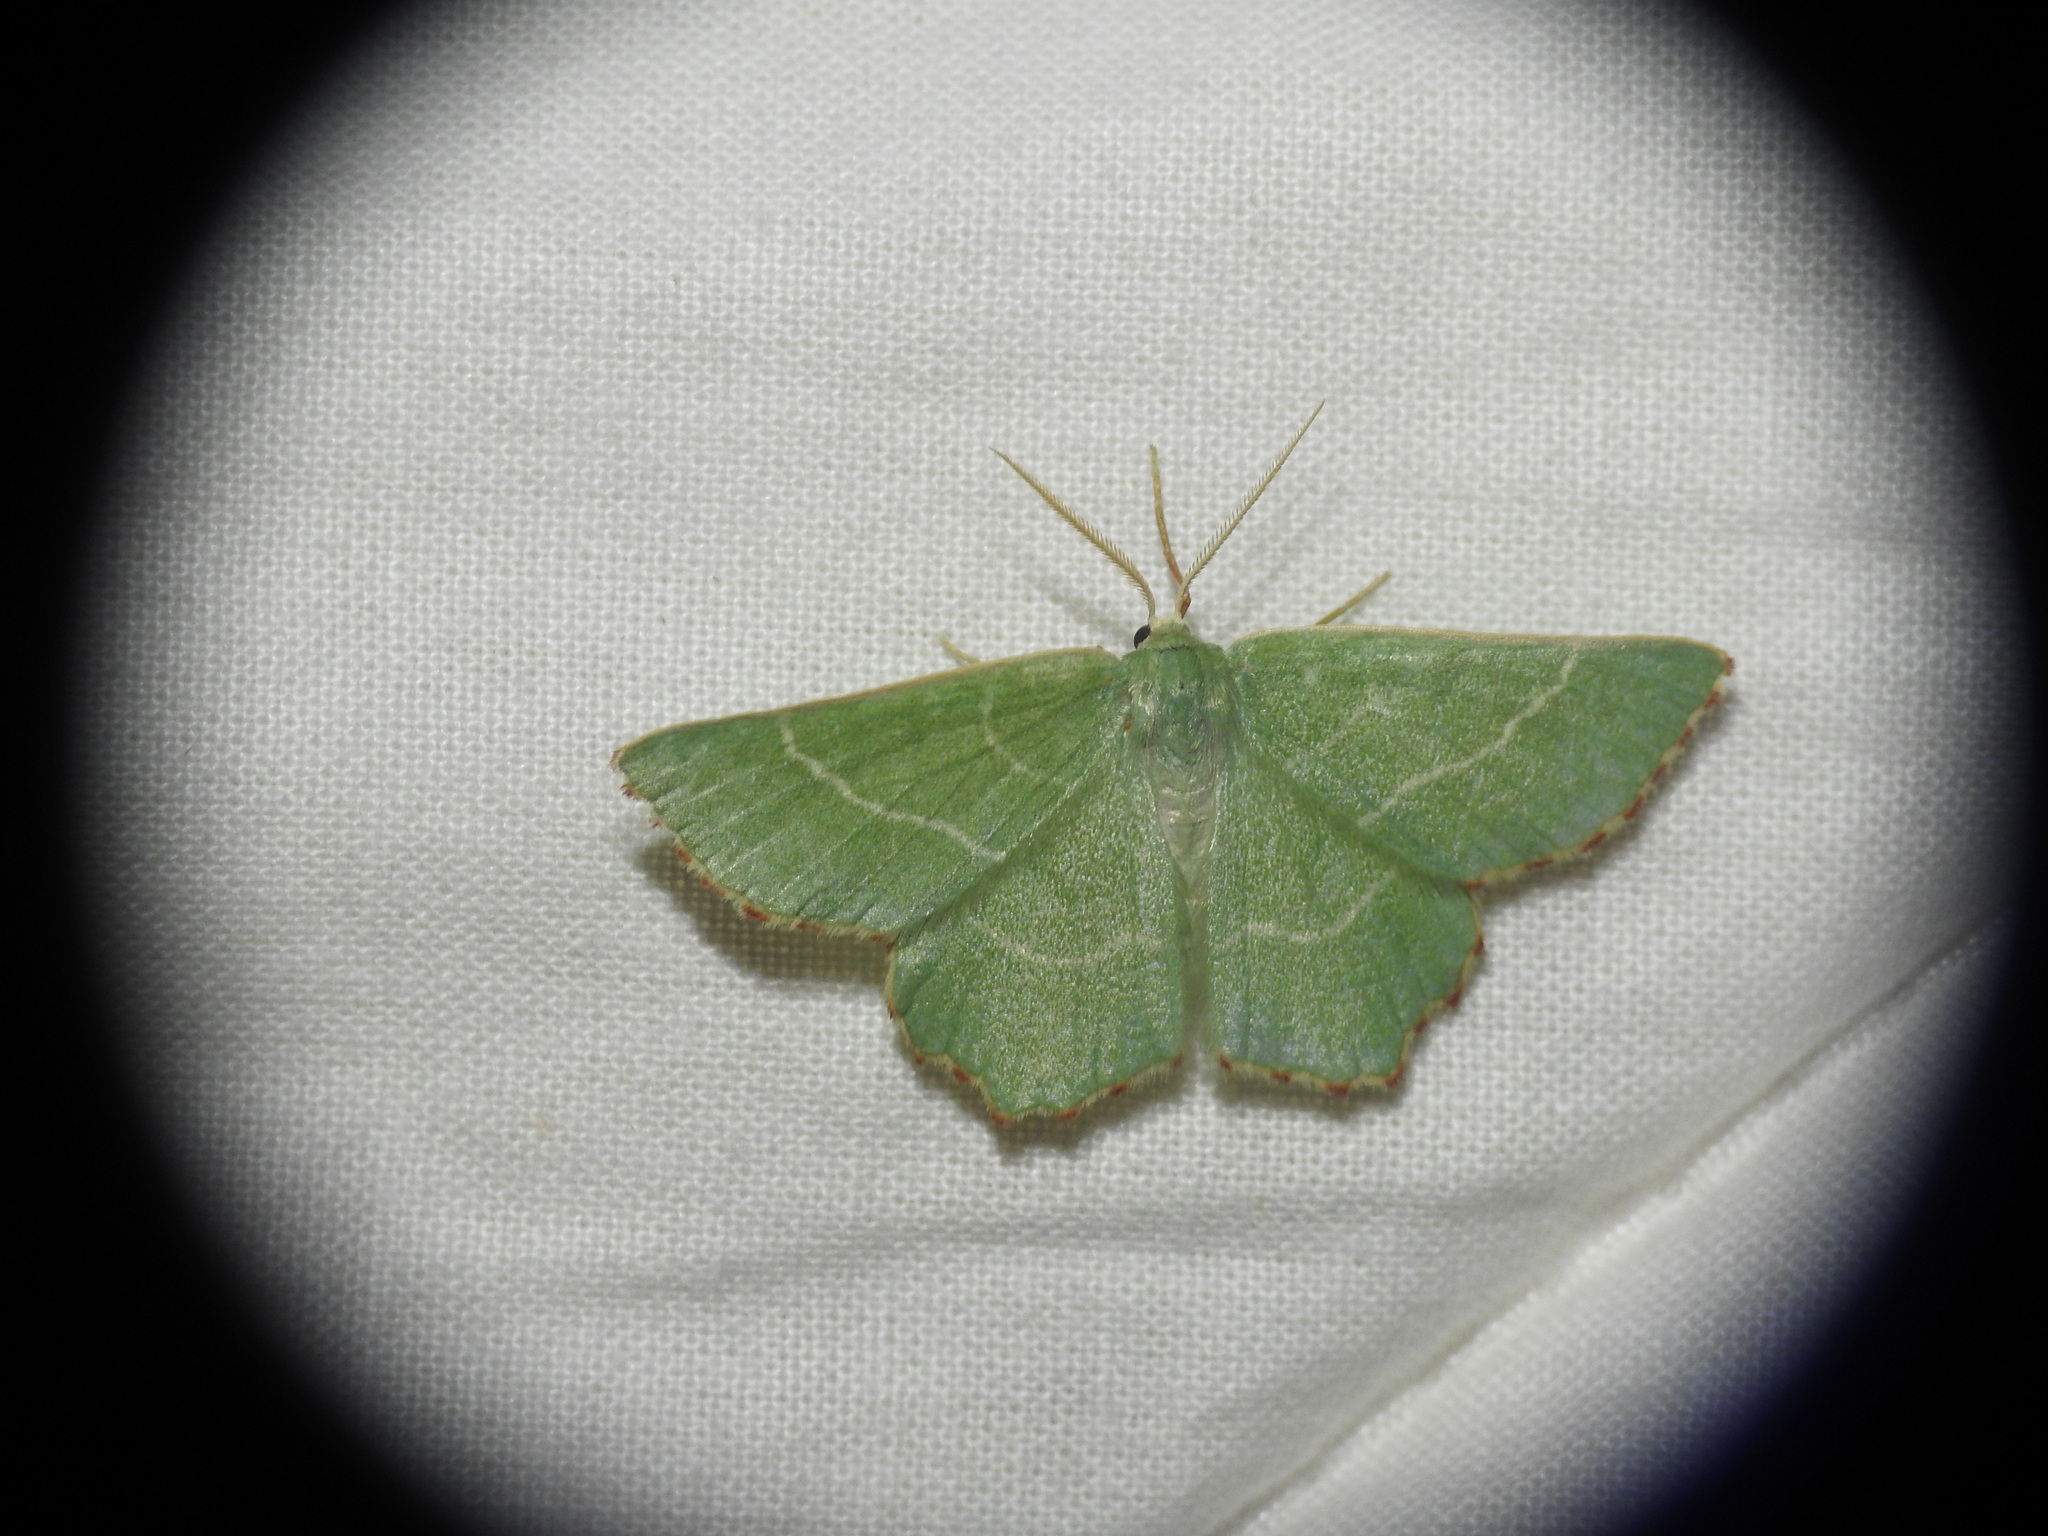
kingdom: Animalia
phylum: Arthropoda
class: Insecta
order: Lepidoptera
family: Geometridae
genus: Thalera
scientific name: Thalera fimbrialis
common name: Sussex emerald
